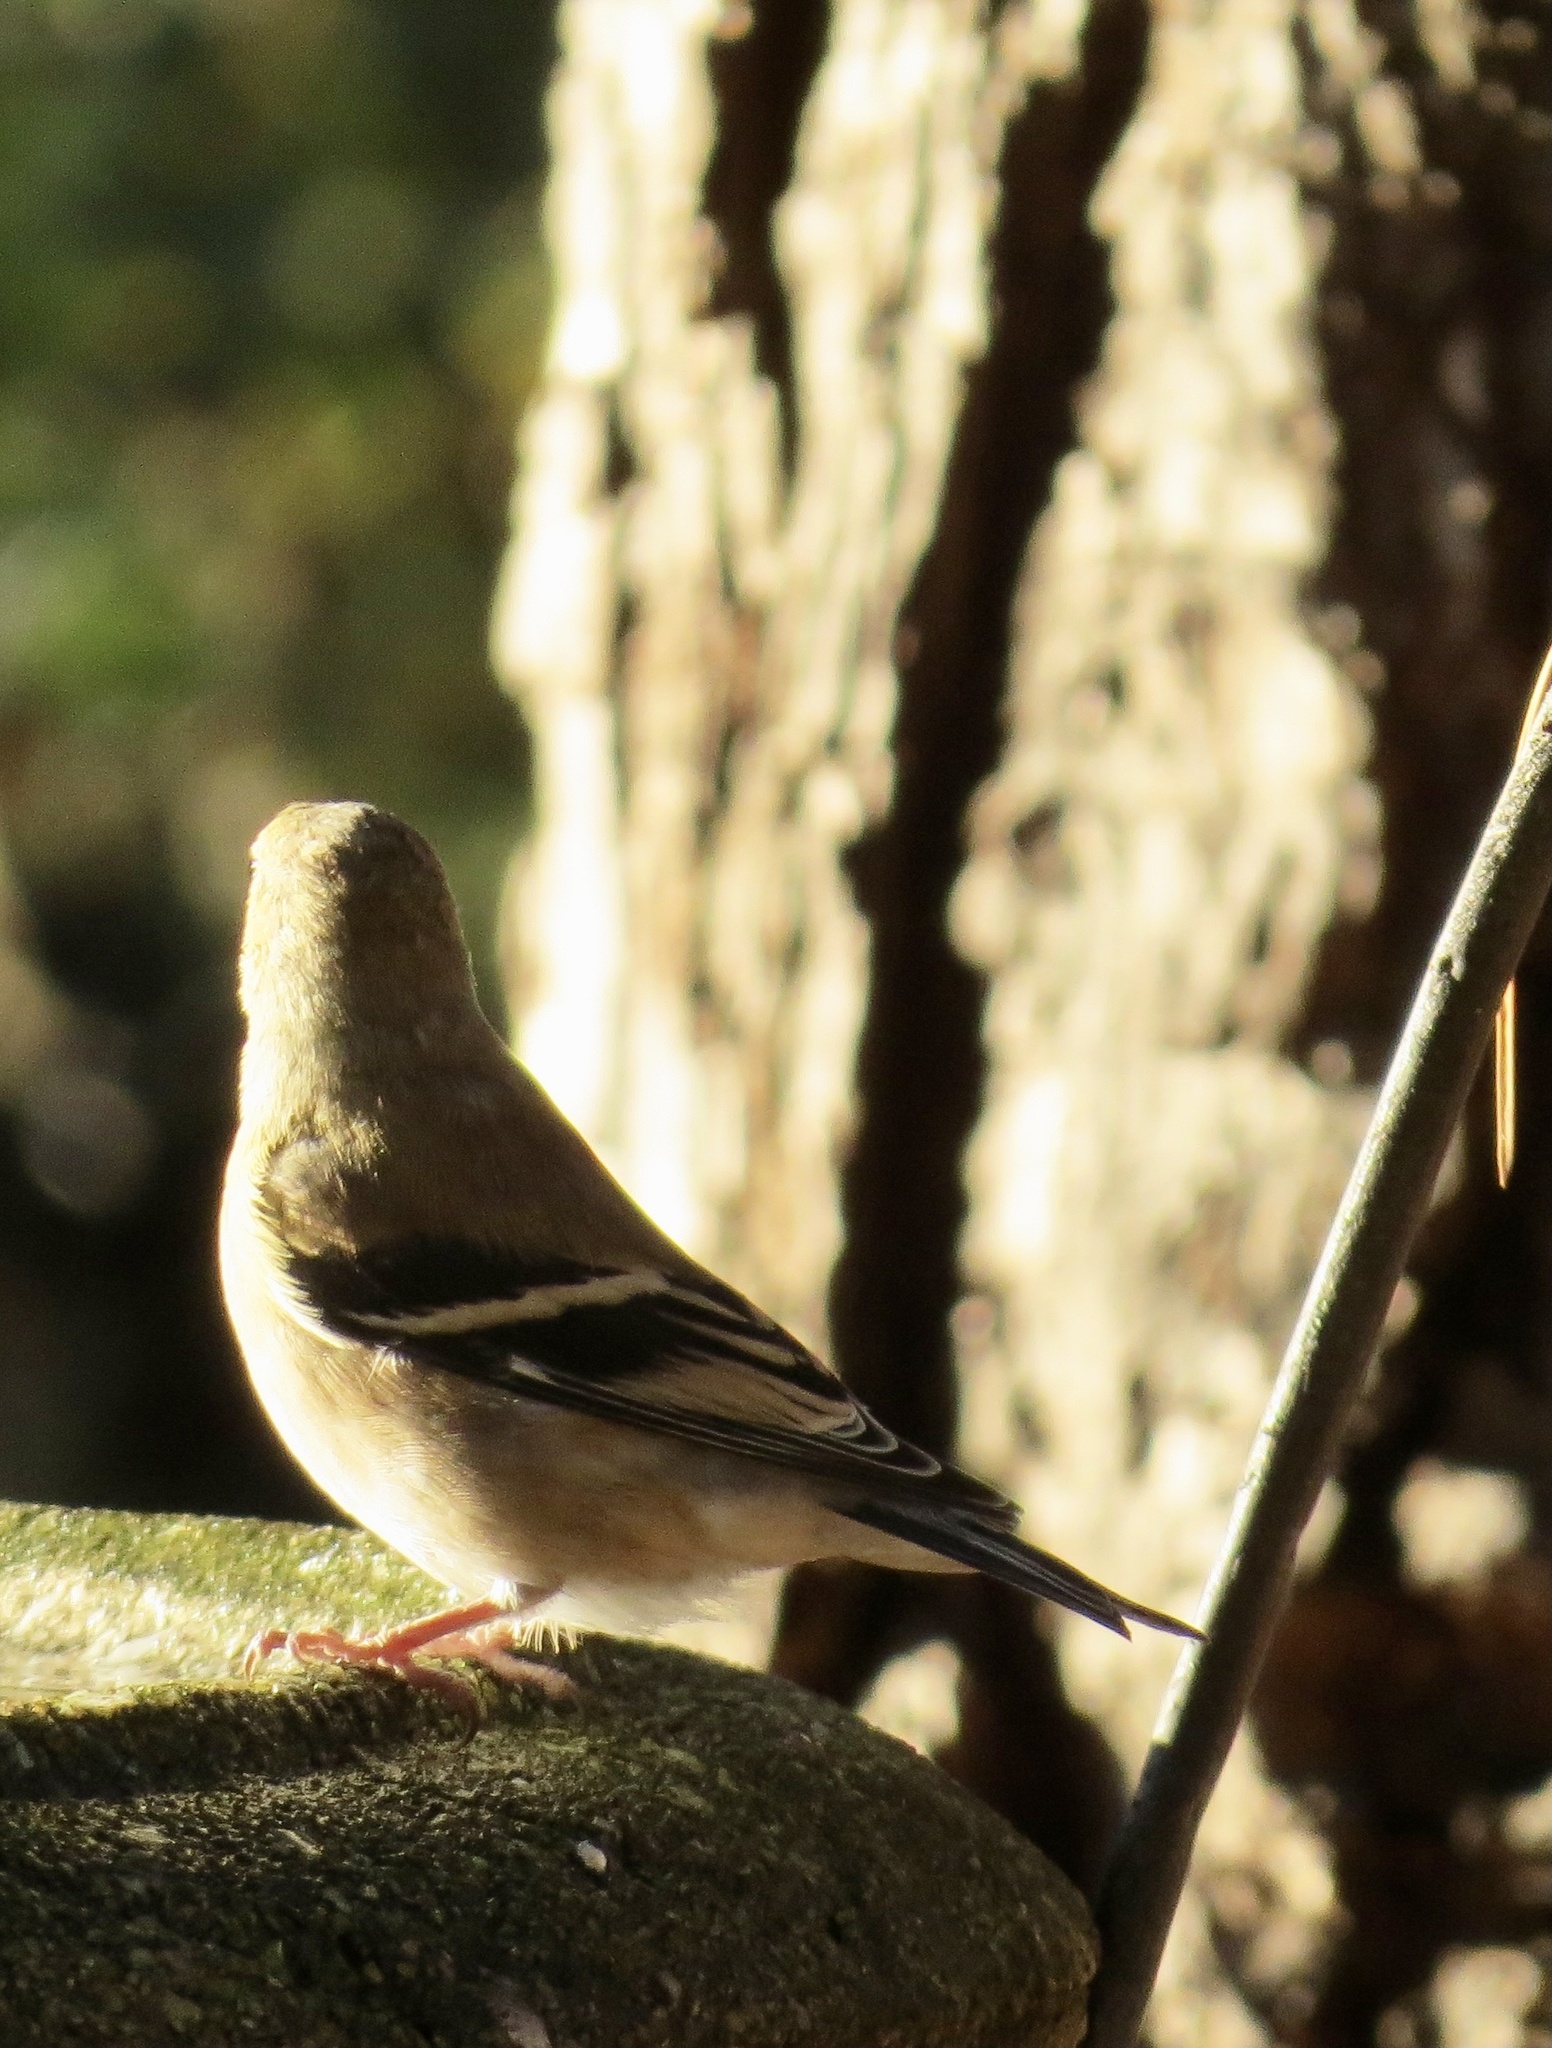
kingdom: Animalia
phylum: Chordata
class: Aves
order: Passeriformes
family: Fringillidae
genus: Spinus
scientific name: Spinus tristis
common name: American goldfinch
